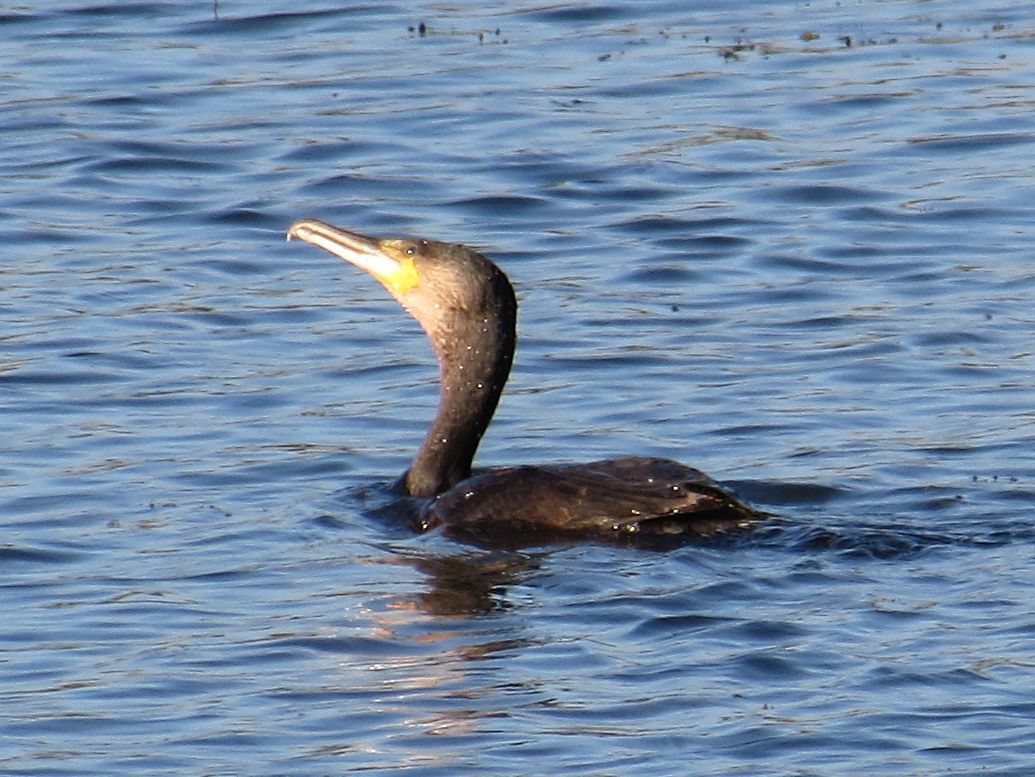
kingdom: Animalia
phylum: Chordata
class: Aves
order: Suliformes
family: Phalacrocoracidae
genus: Phalacrocorax
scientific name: Phalacrocorax carbo
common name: Great cormorant
